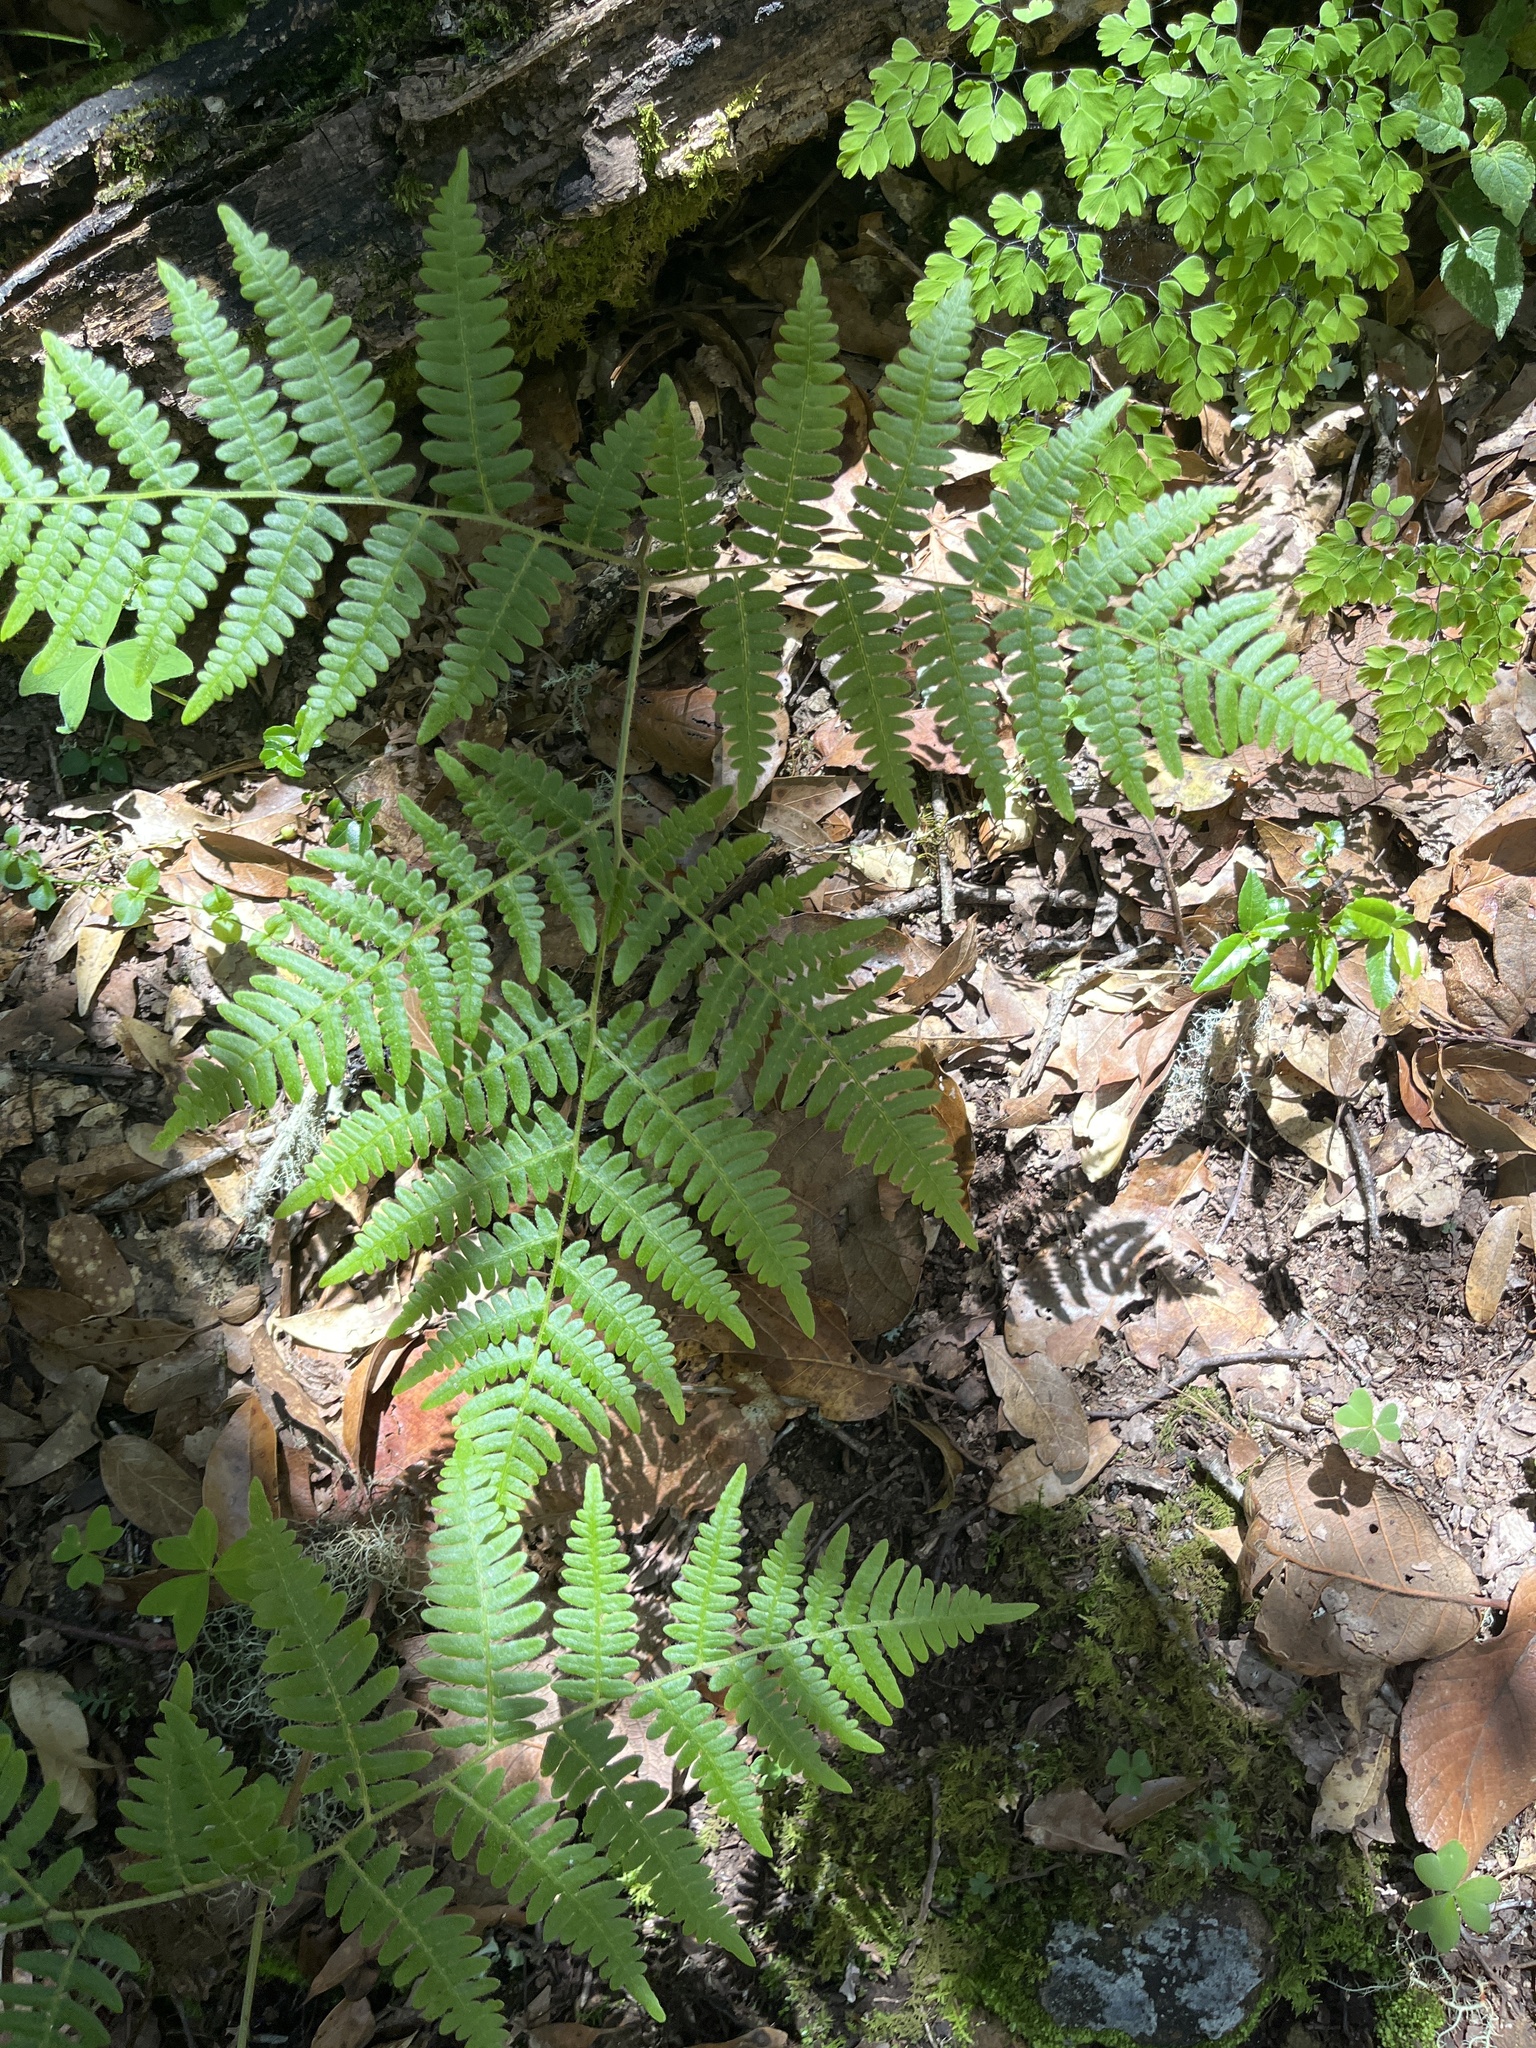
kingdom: Plantae
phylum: Tracheophyta
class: Polypodiopsida
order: Polypodiales
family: Dennstaedtiaceae
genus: Pteridium
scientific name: Pteridium aquilinum
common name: Bracken
